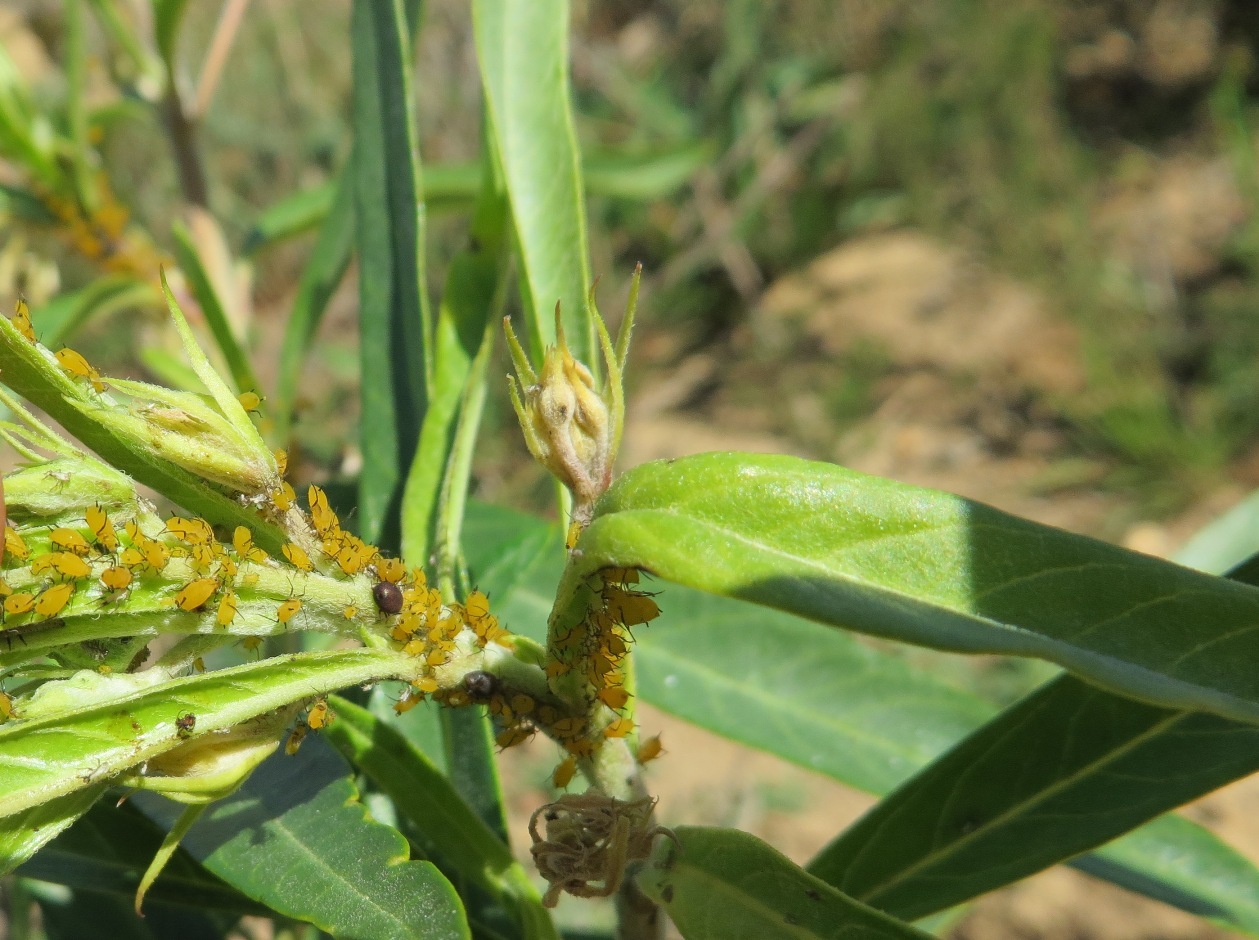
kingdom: Animalia
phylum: Arthropoda
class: Insecta
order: Hemiptera
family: Aphididae
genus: Aphis
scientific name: Aphis nerii
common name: Oleander aphid
